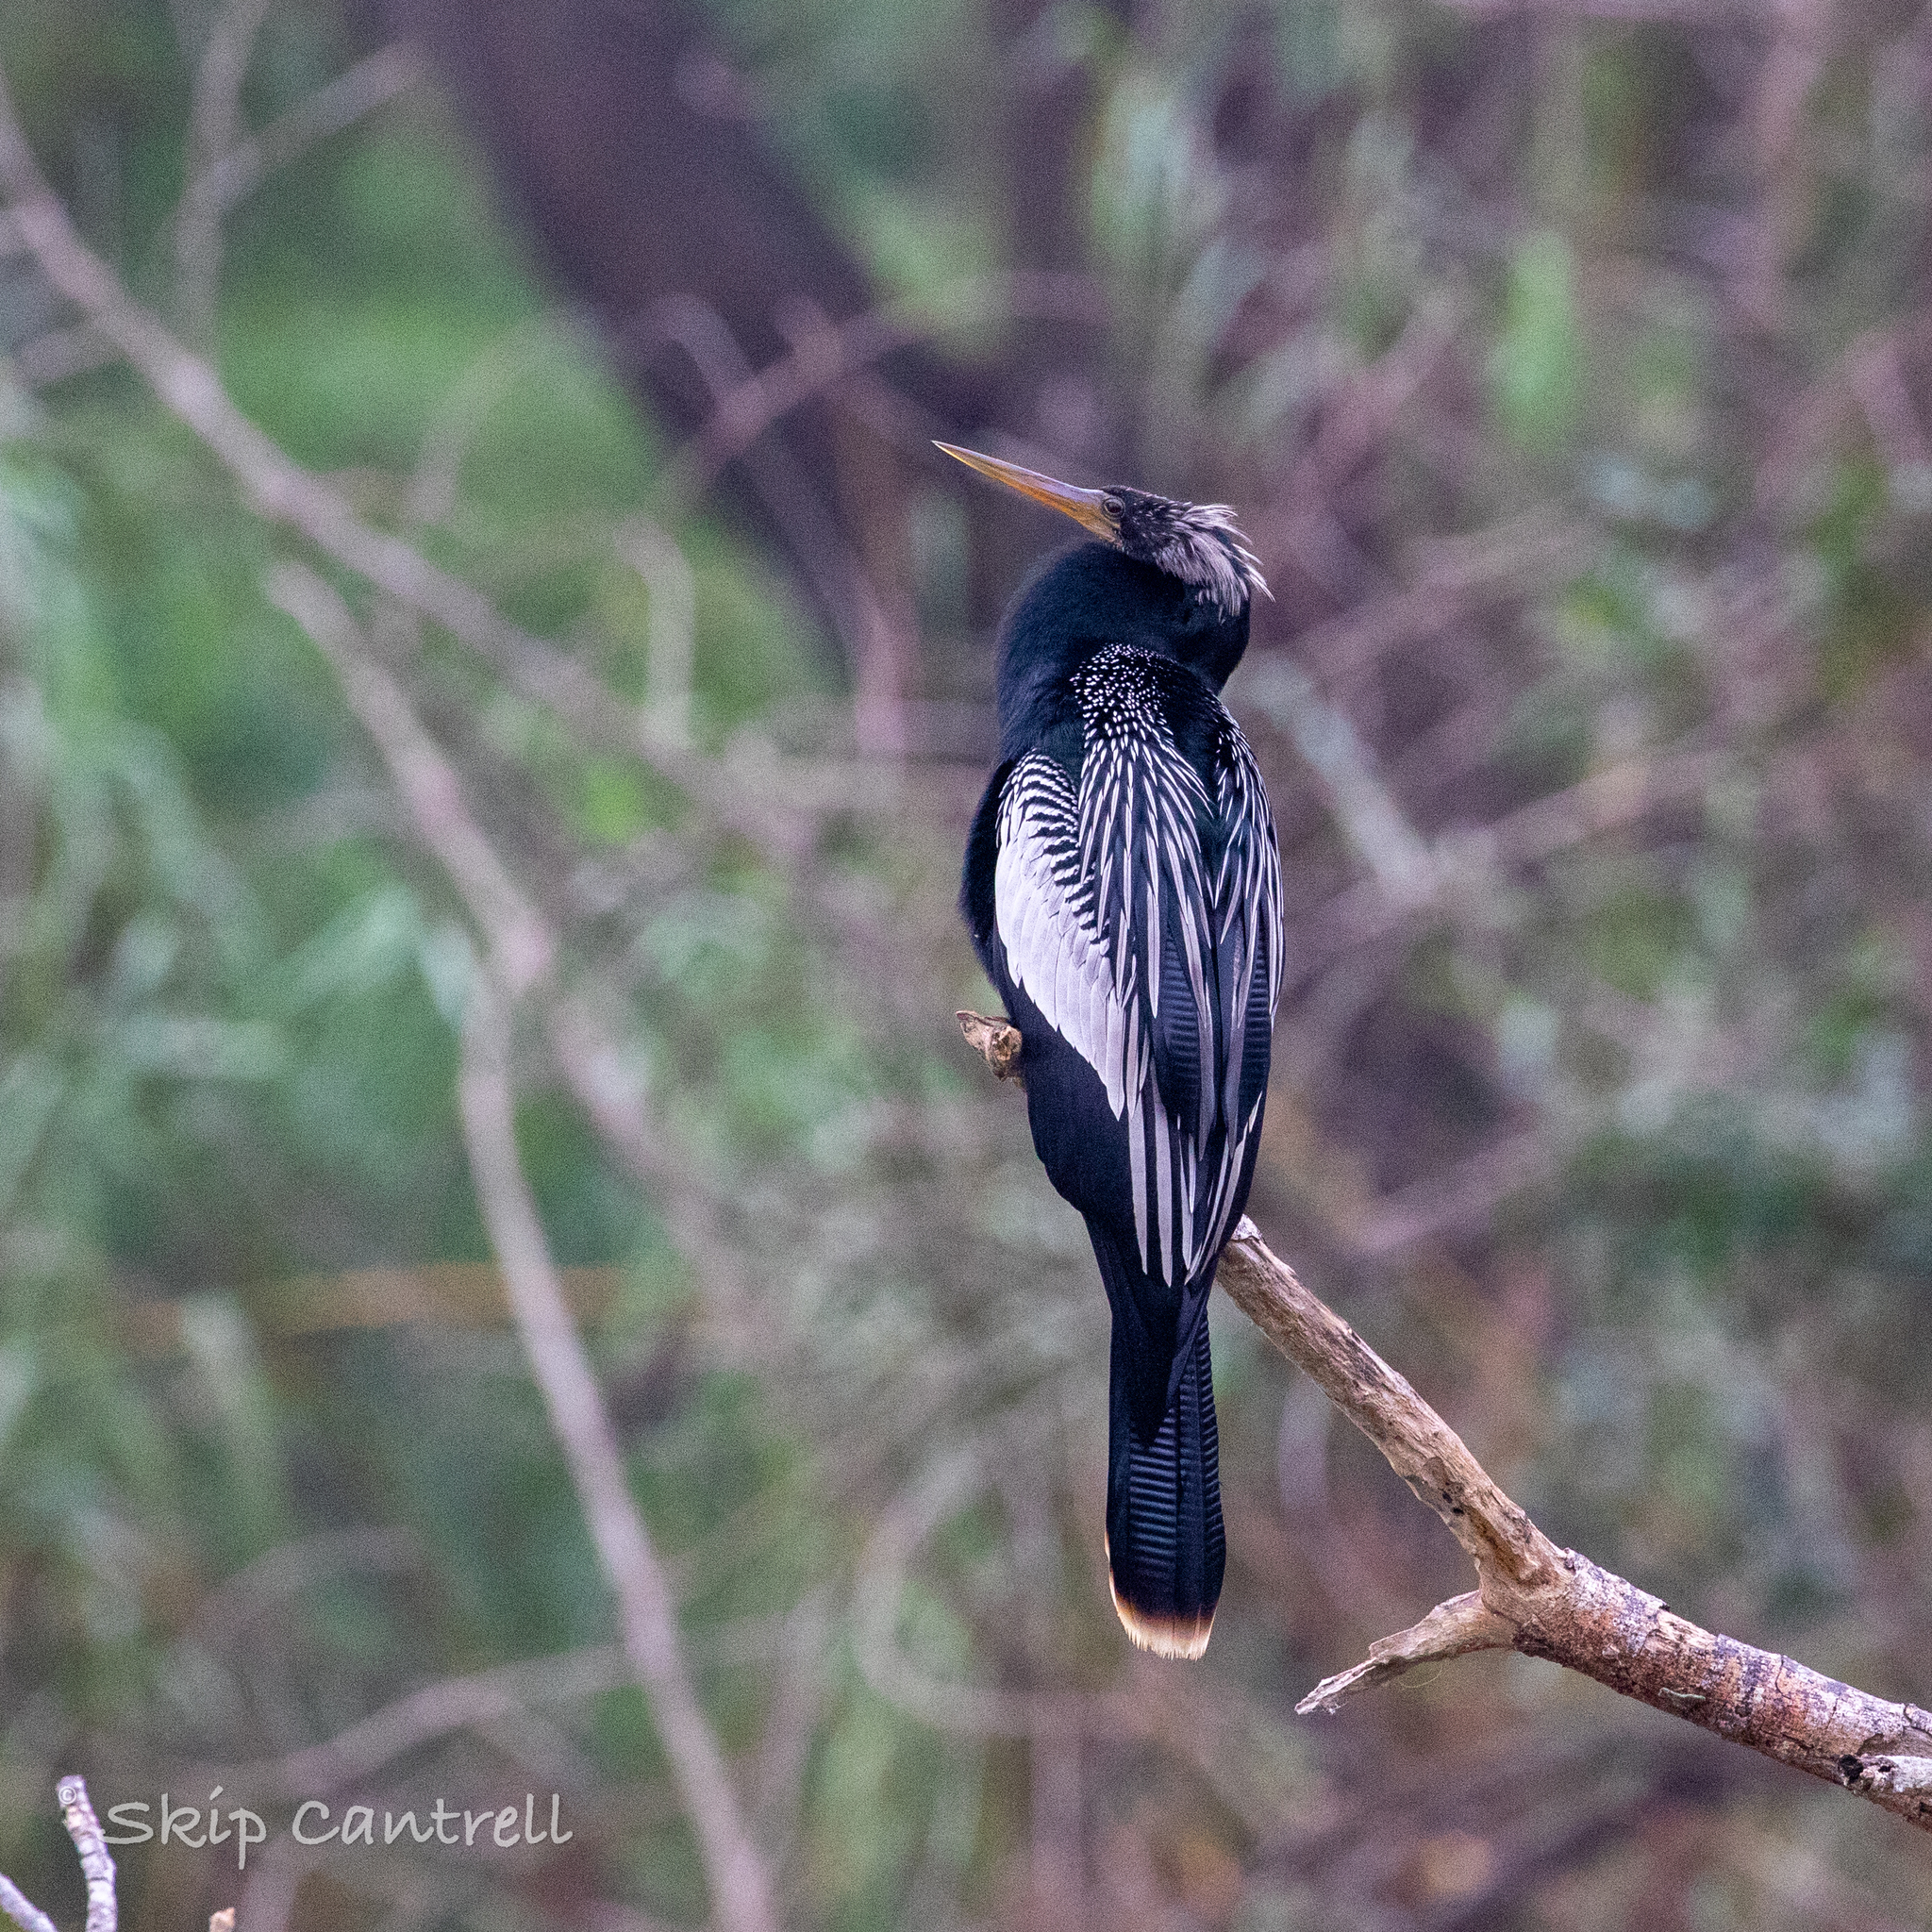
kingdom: Animalia
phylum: Chordata
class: Aves
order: Suliformes
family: Anhingidae
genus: Anhinga
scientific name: Anhinga anhinga
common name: Anhinga
